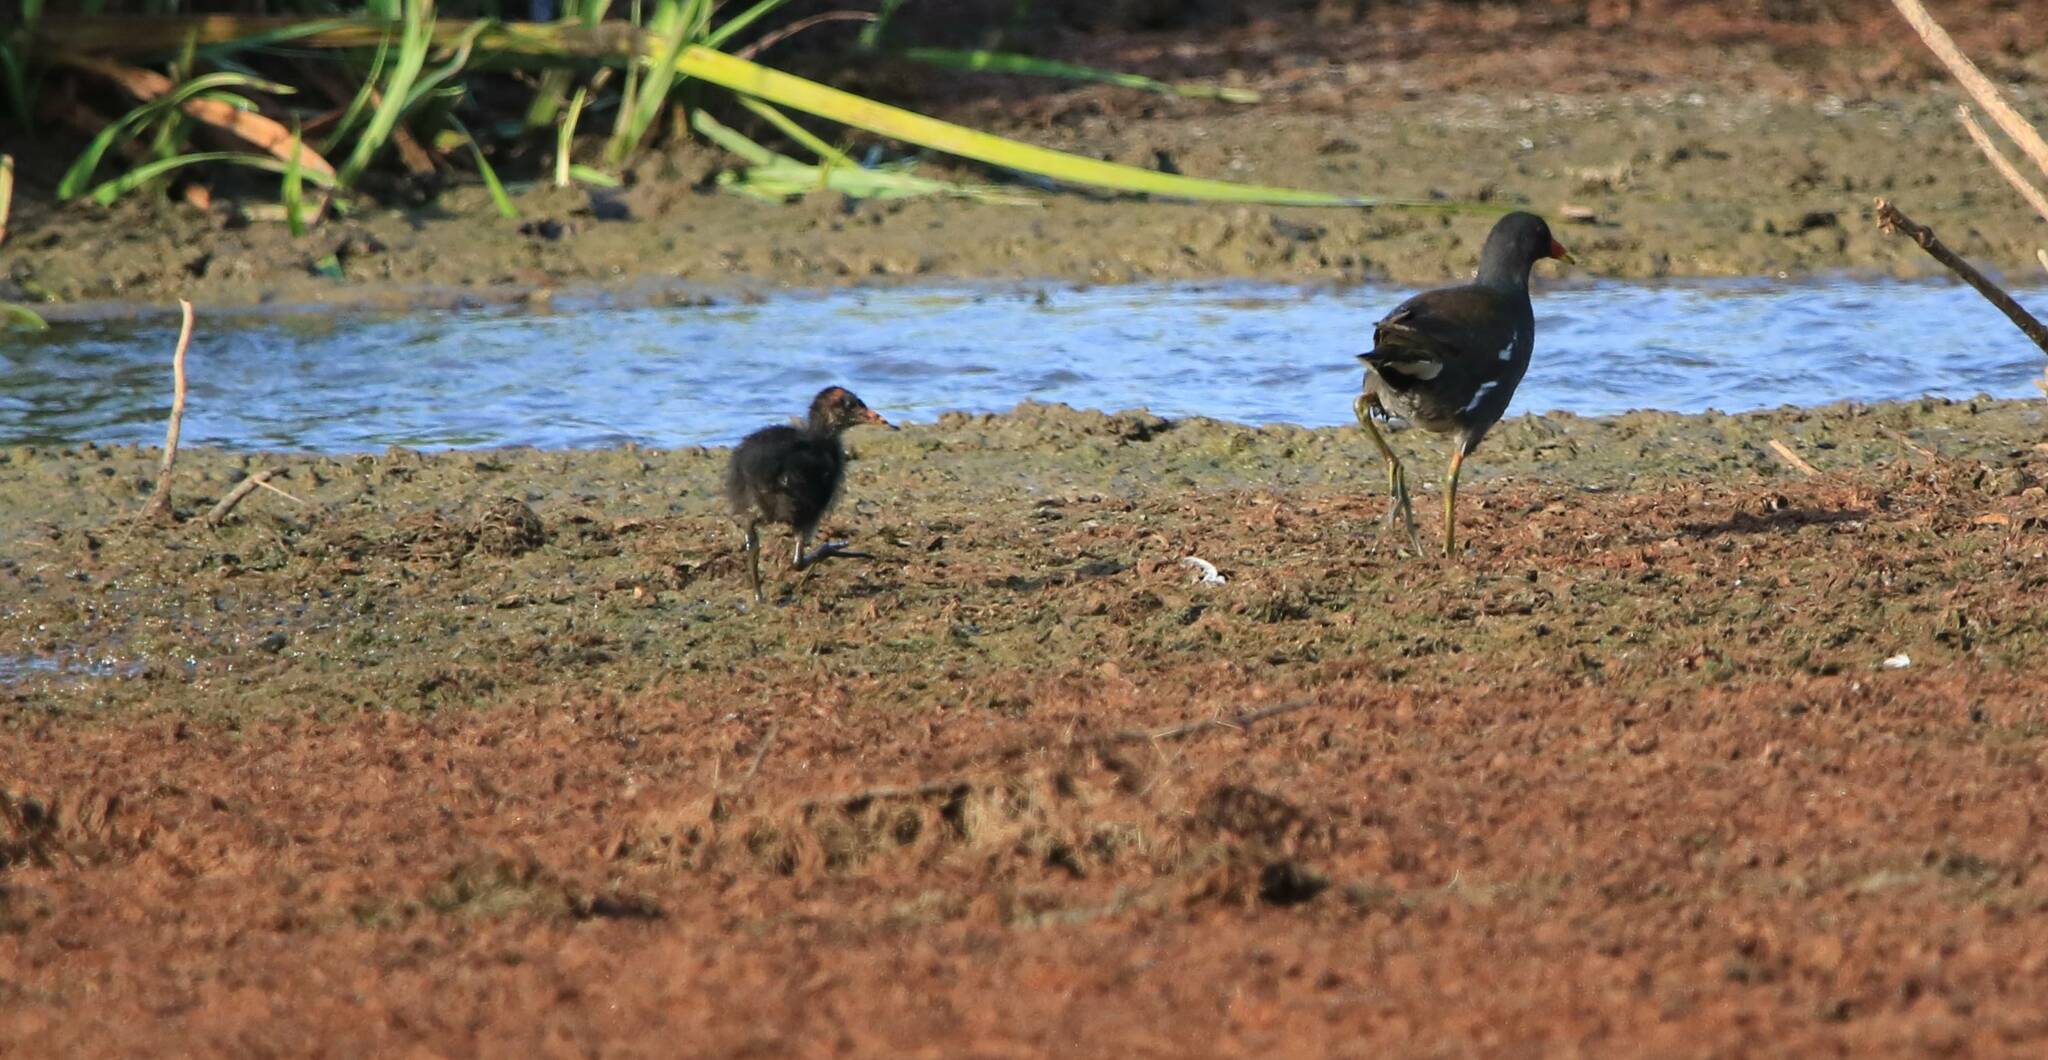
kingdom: Animalia
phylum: Chordata
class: Aves
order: Gruiformes
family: Rallidae
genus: Gallinula
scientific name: Gallinula chloropus
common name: Common moorhen
